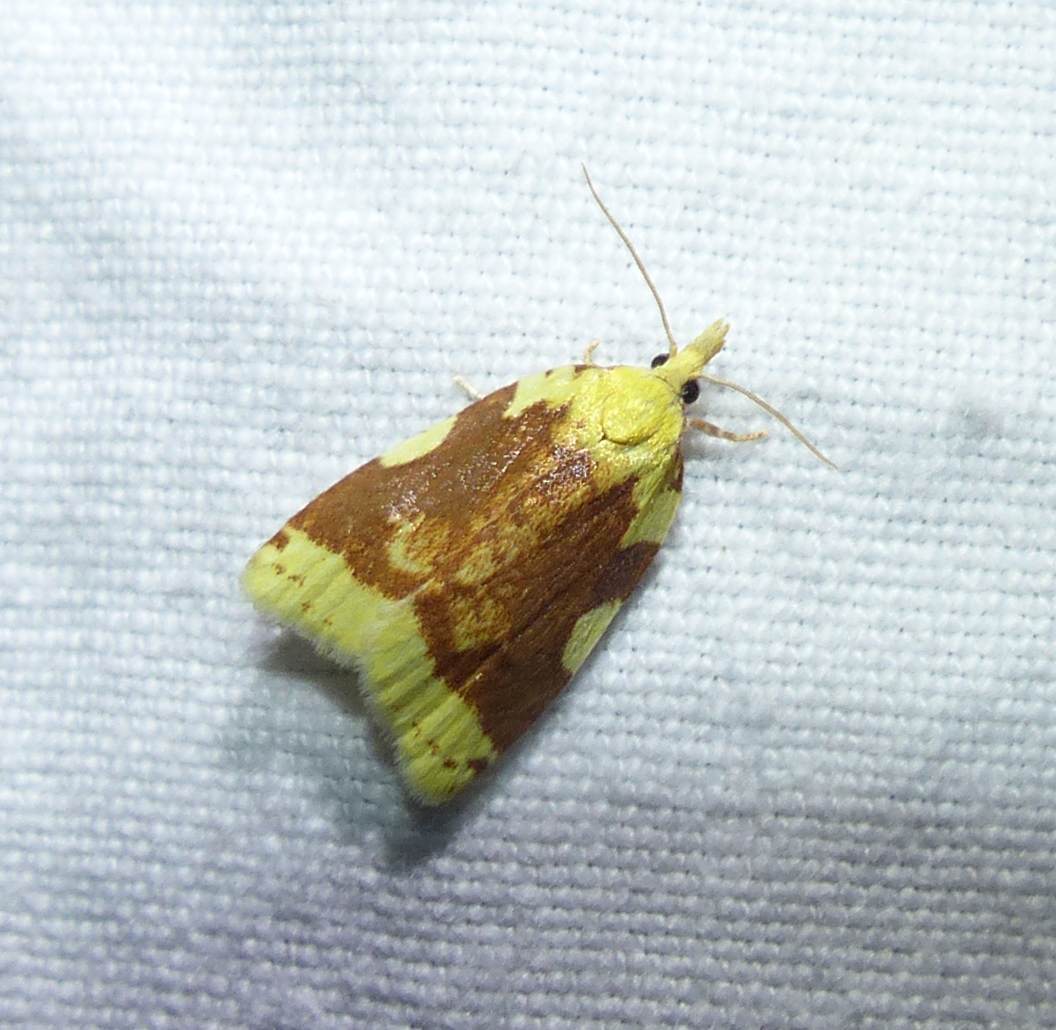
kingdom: Animalia
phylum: Arthropoda
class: Insecta
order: Lepidoptera
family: Tortricidae
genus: Cenopis
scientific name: Cenopis niveana
